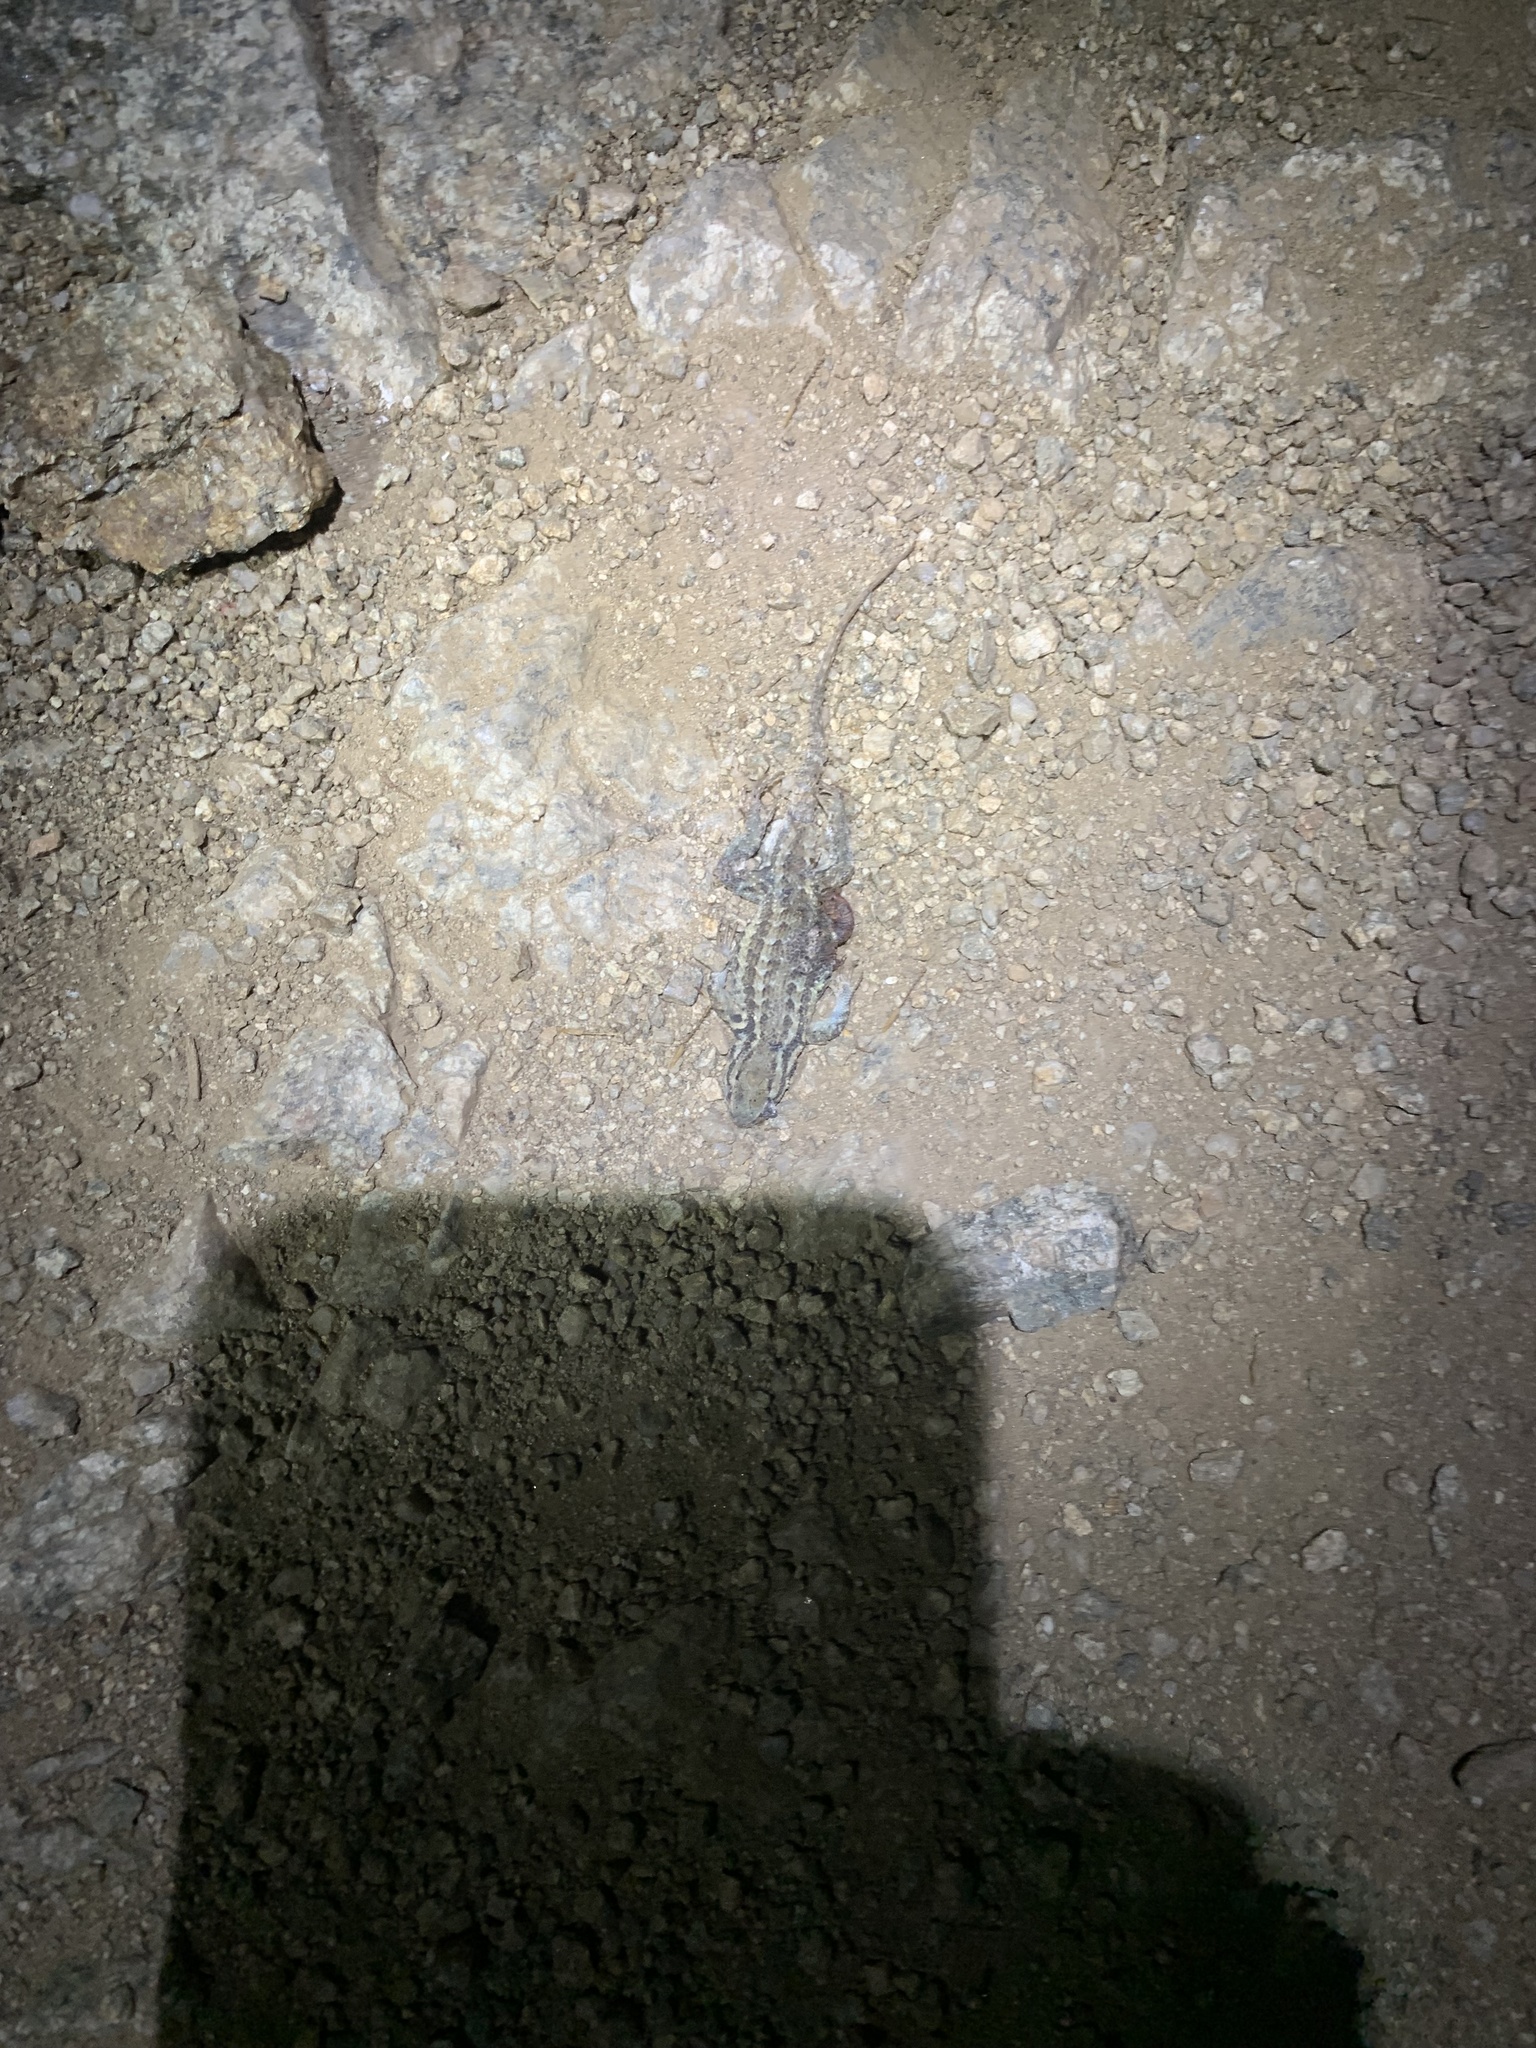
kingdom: Animalia
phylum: Chordata
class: Squamata
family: Phrynosomatidae
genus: Sceloporus
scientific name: Sceloporus graciosus
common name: Sagebrush lizard
